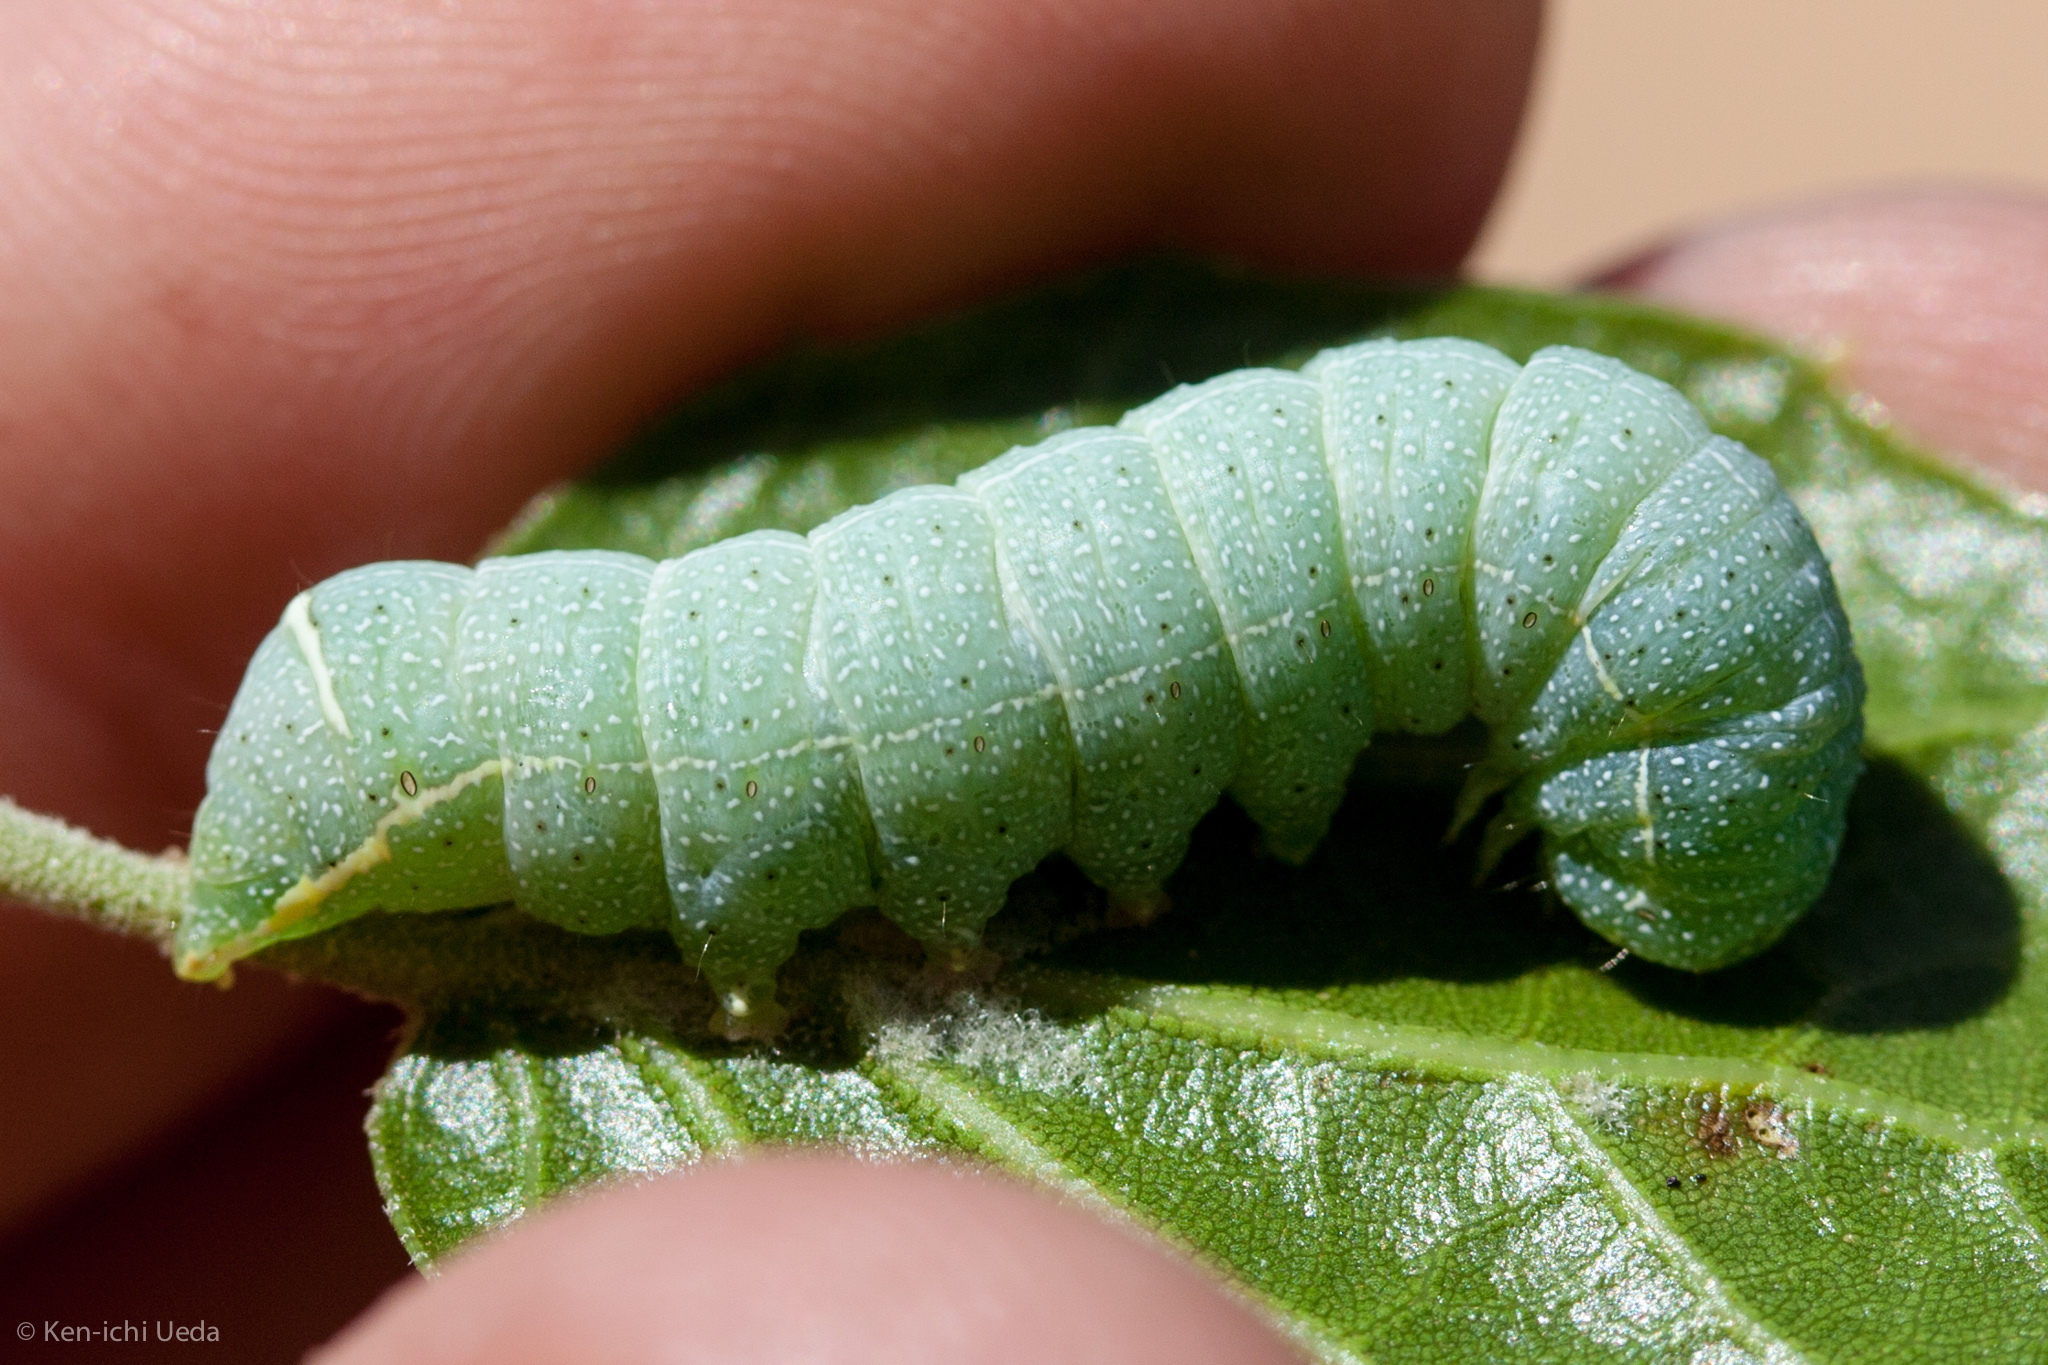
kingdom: Animalia
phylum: Arthropoda
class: Insecta
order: Lepidoptera
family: Noctuidae
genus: Orthosia
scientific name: Orthosia pacifica
